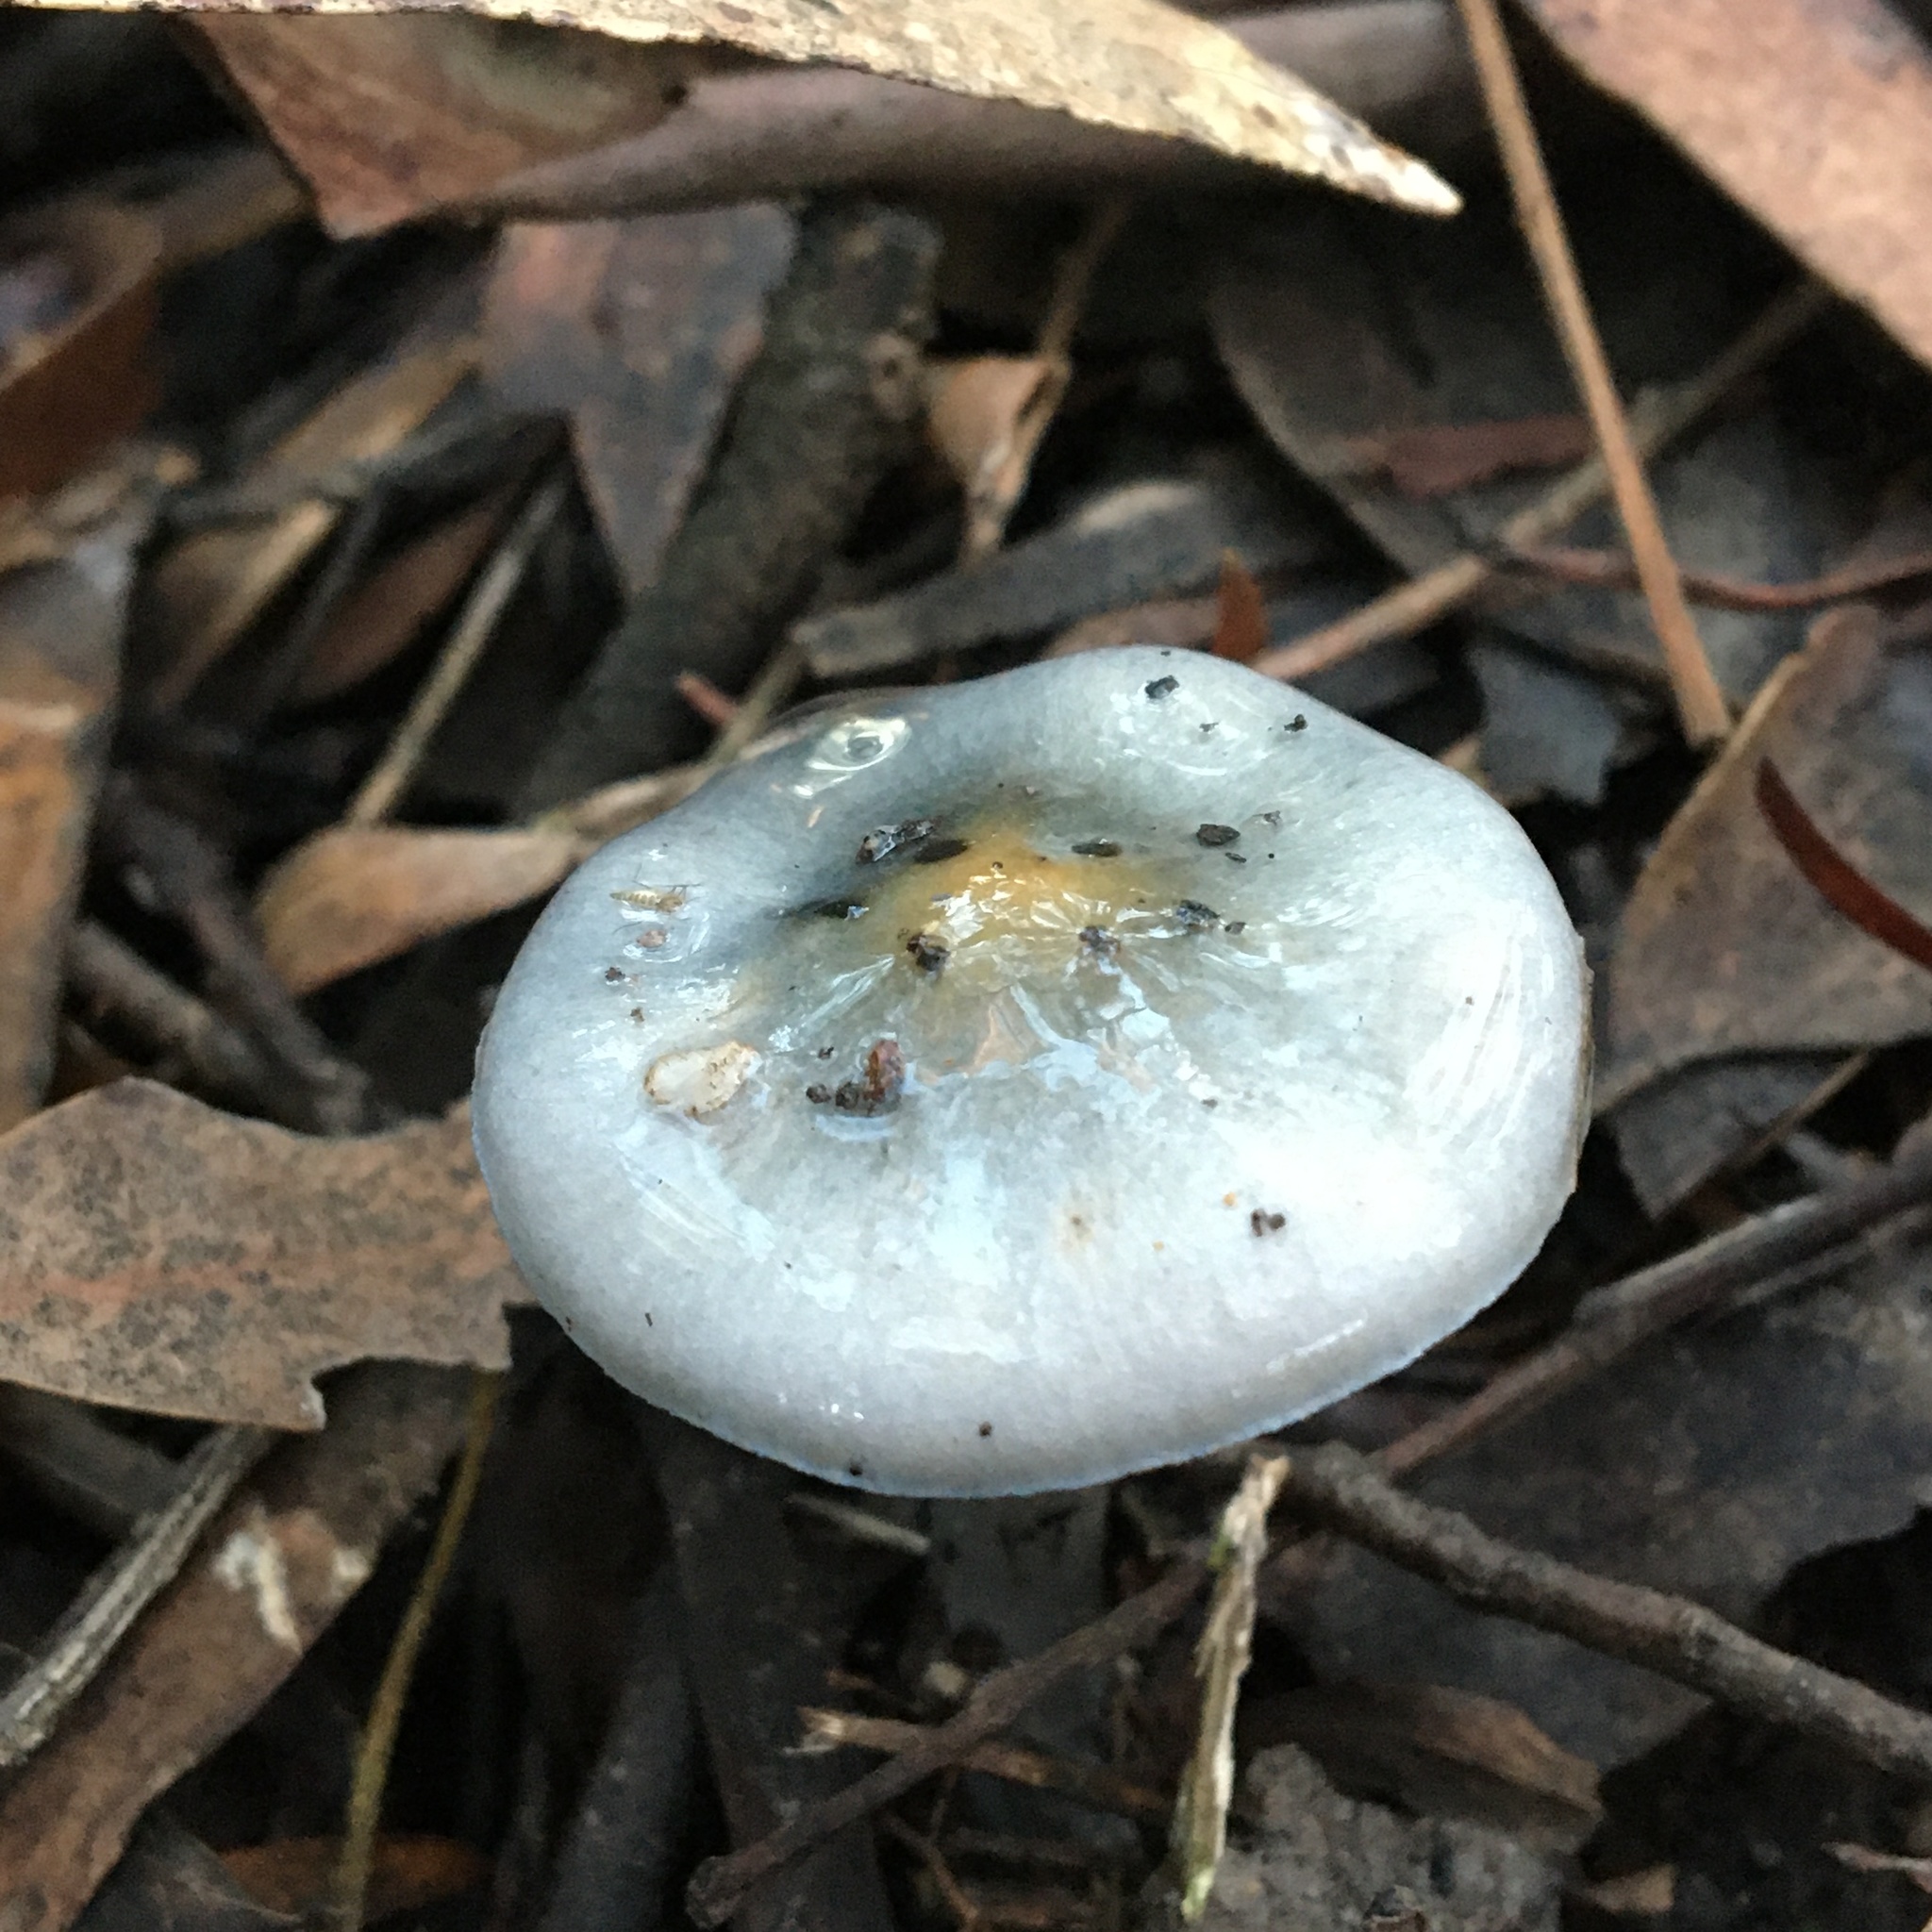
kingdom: Fungi
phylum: Basidiomycota
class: Agaricomycetes
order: Agaricales
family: Cortinariaceae
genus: Cortinarius
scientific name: Cortinarius rotundisporus
